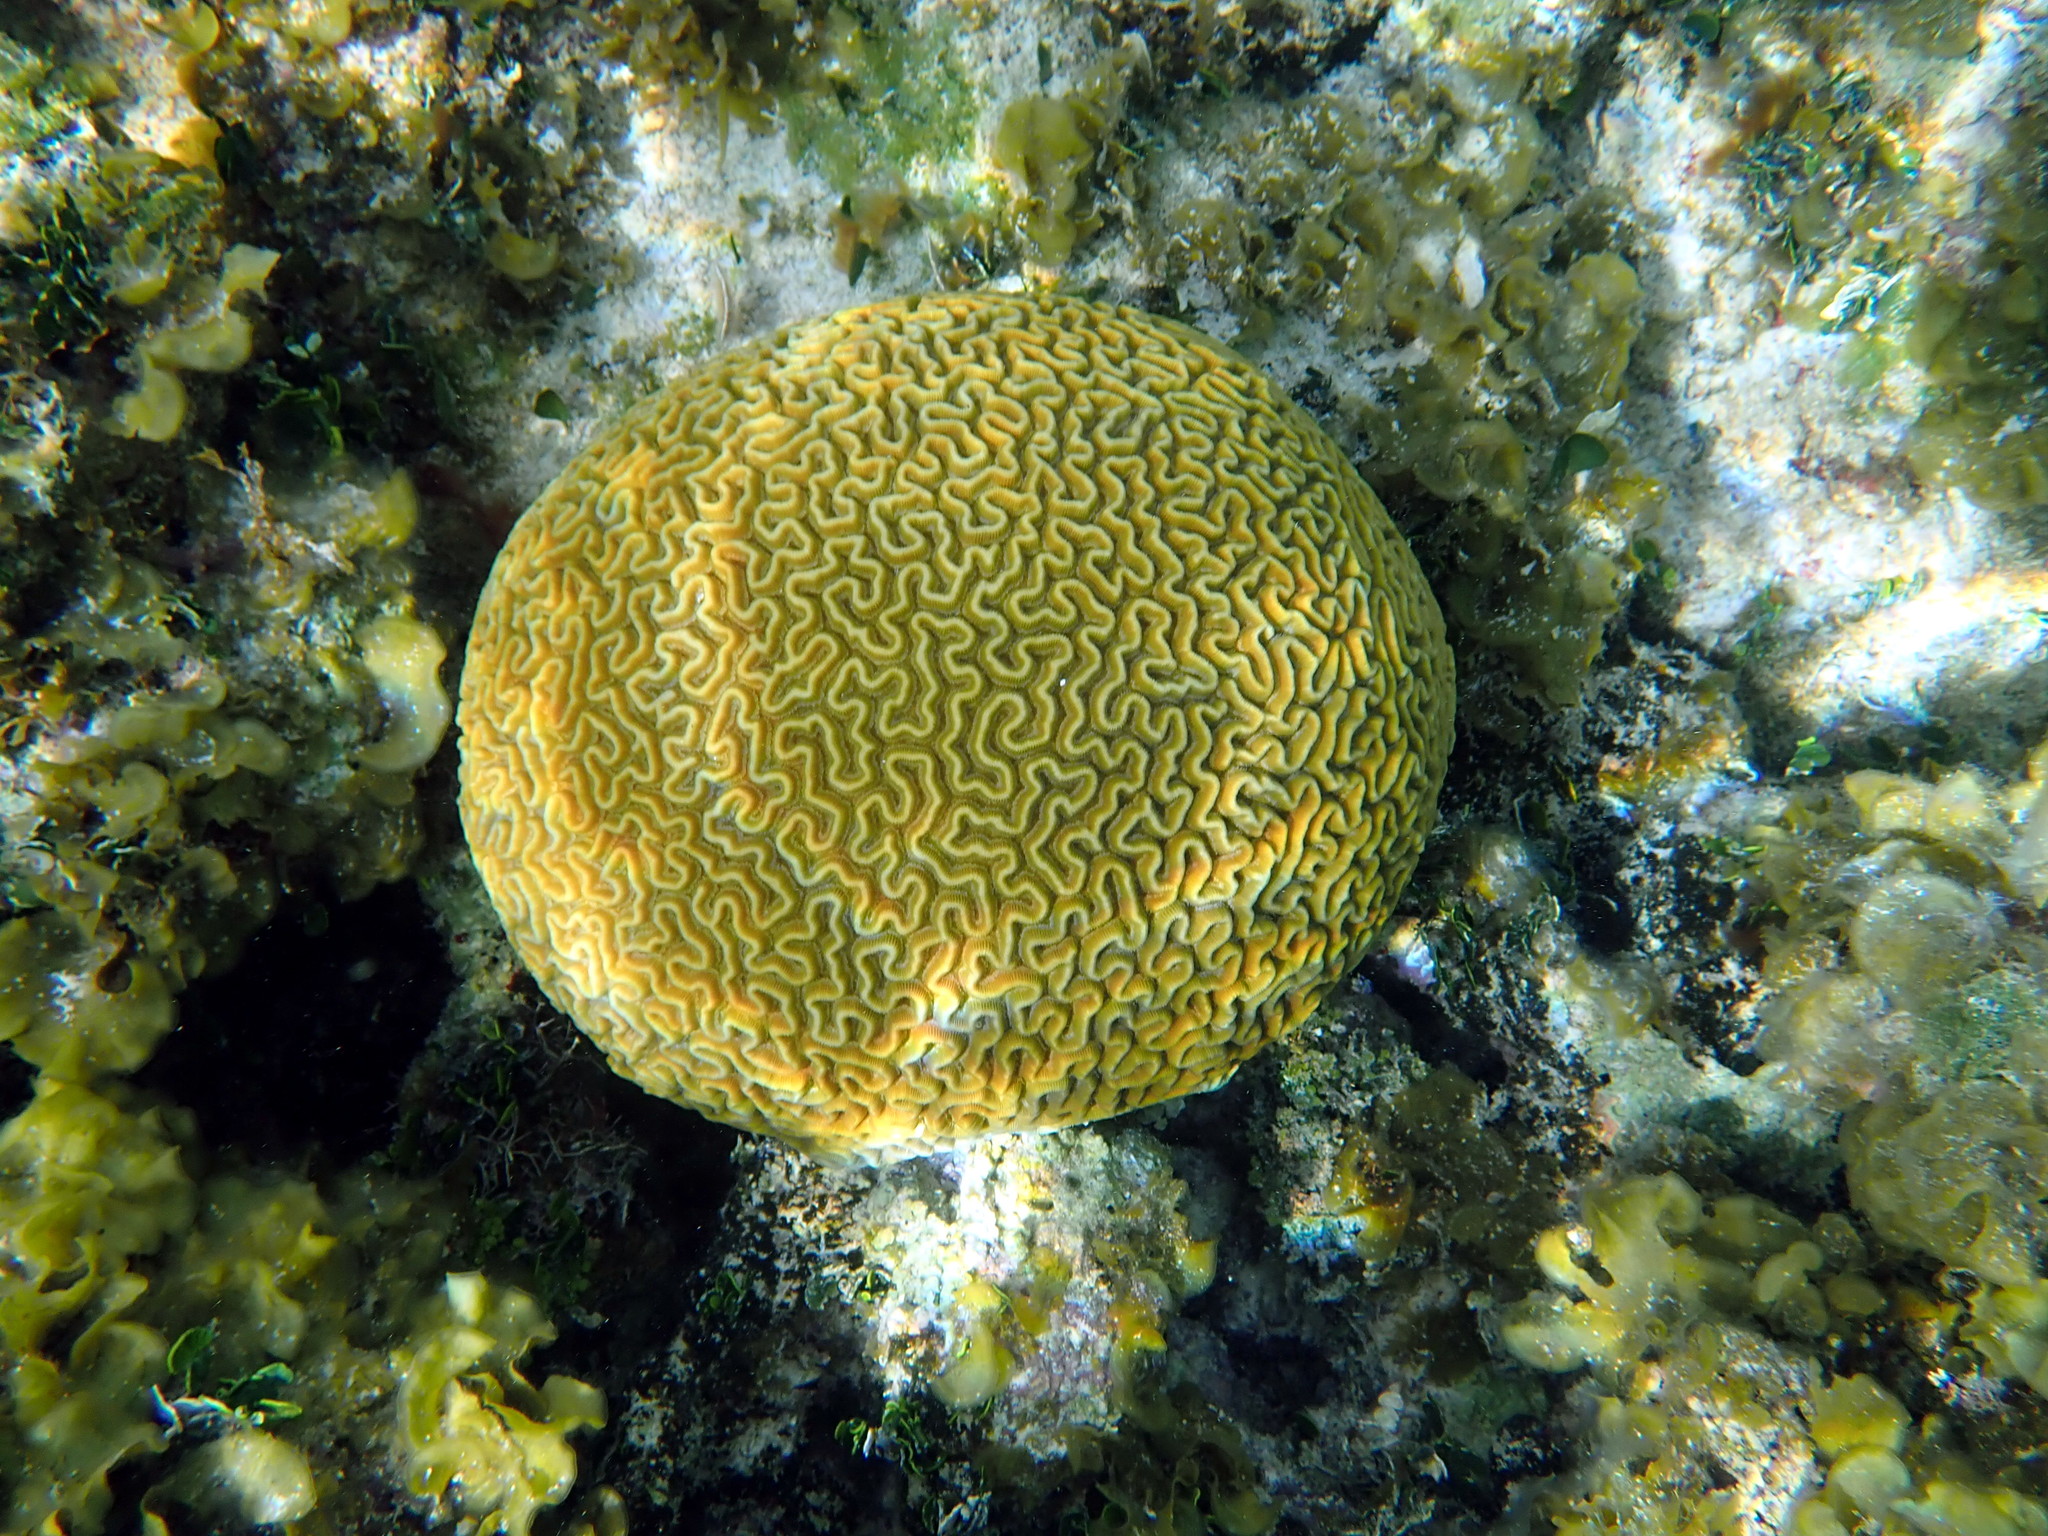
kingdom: Animalia
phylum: Cnidaria
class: Anthozoa
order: Scleractinia
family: Faviidae
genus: Pseudodiploria
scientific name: Pseudodiploria strigosa
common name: Symmetrical brain coral
